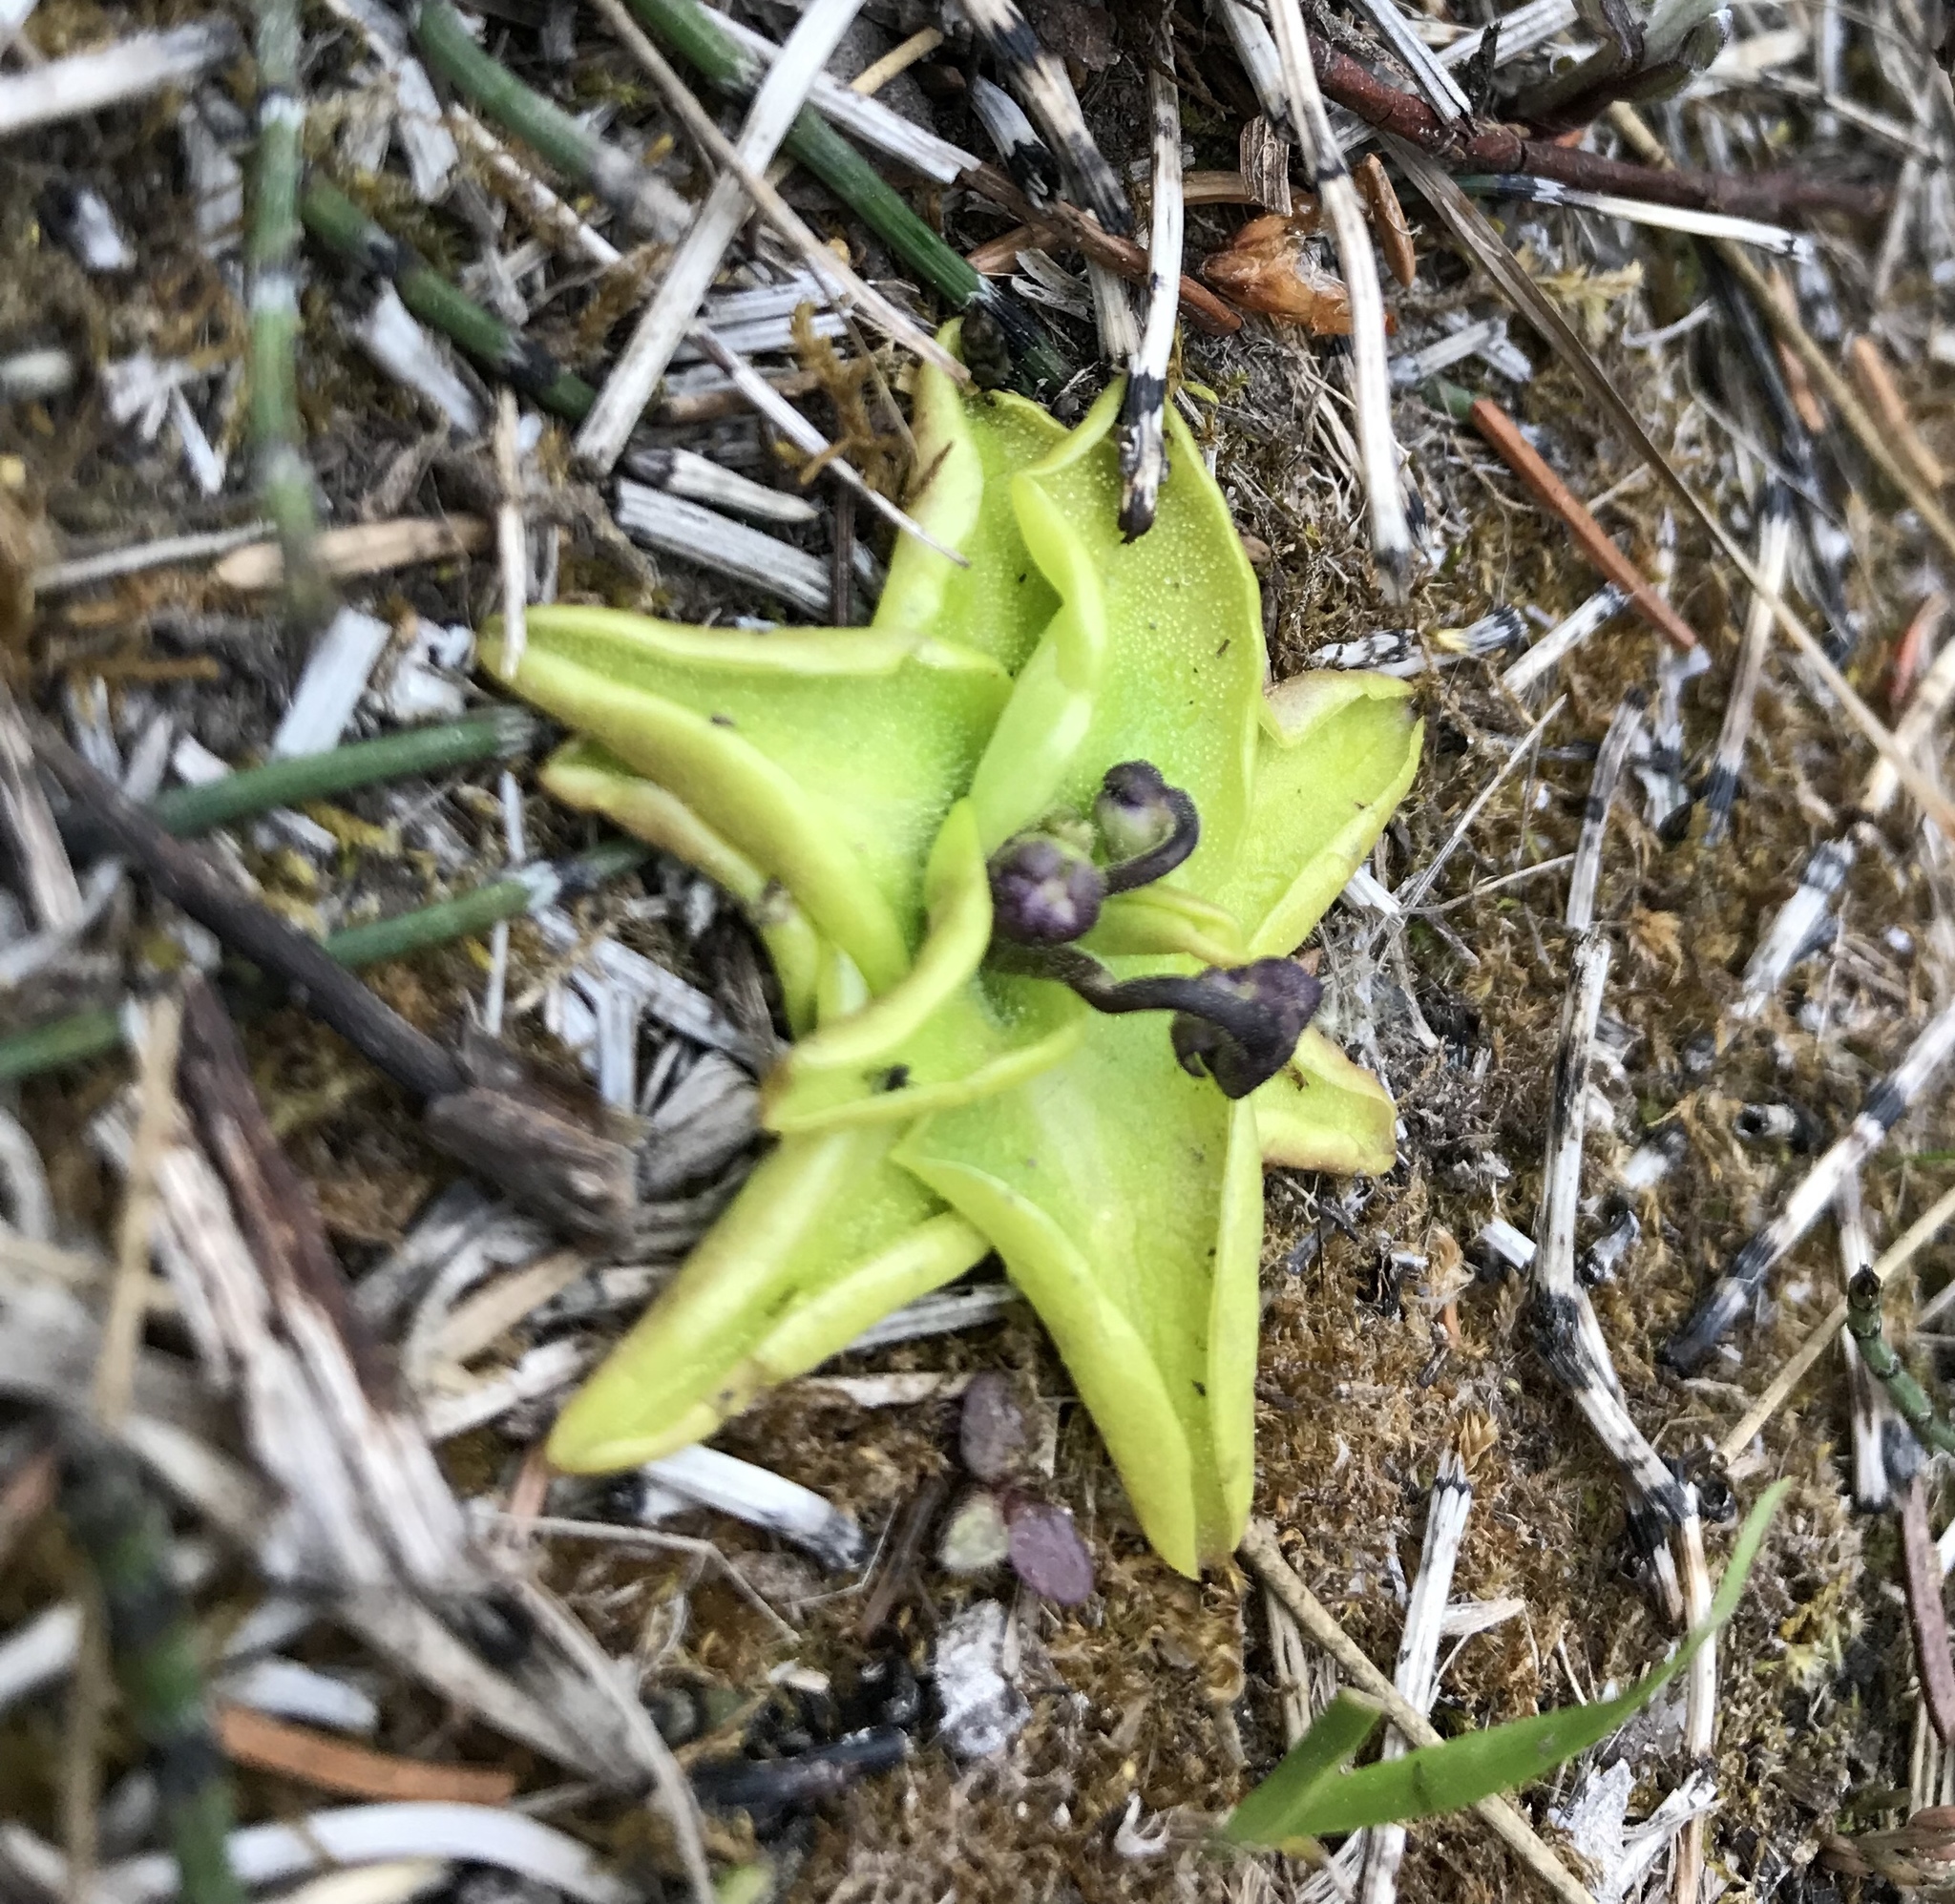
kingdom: Plantae
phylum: Tracheophyta
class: Magnoliopsida
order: Lamiales
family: Lentibulariaceae
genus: Pinguicula
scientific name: Pinguicula vulgaris
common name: Common butterwort
